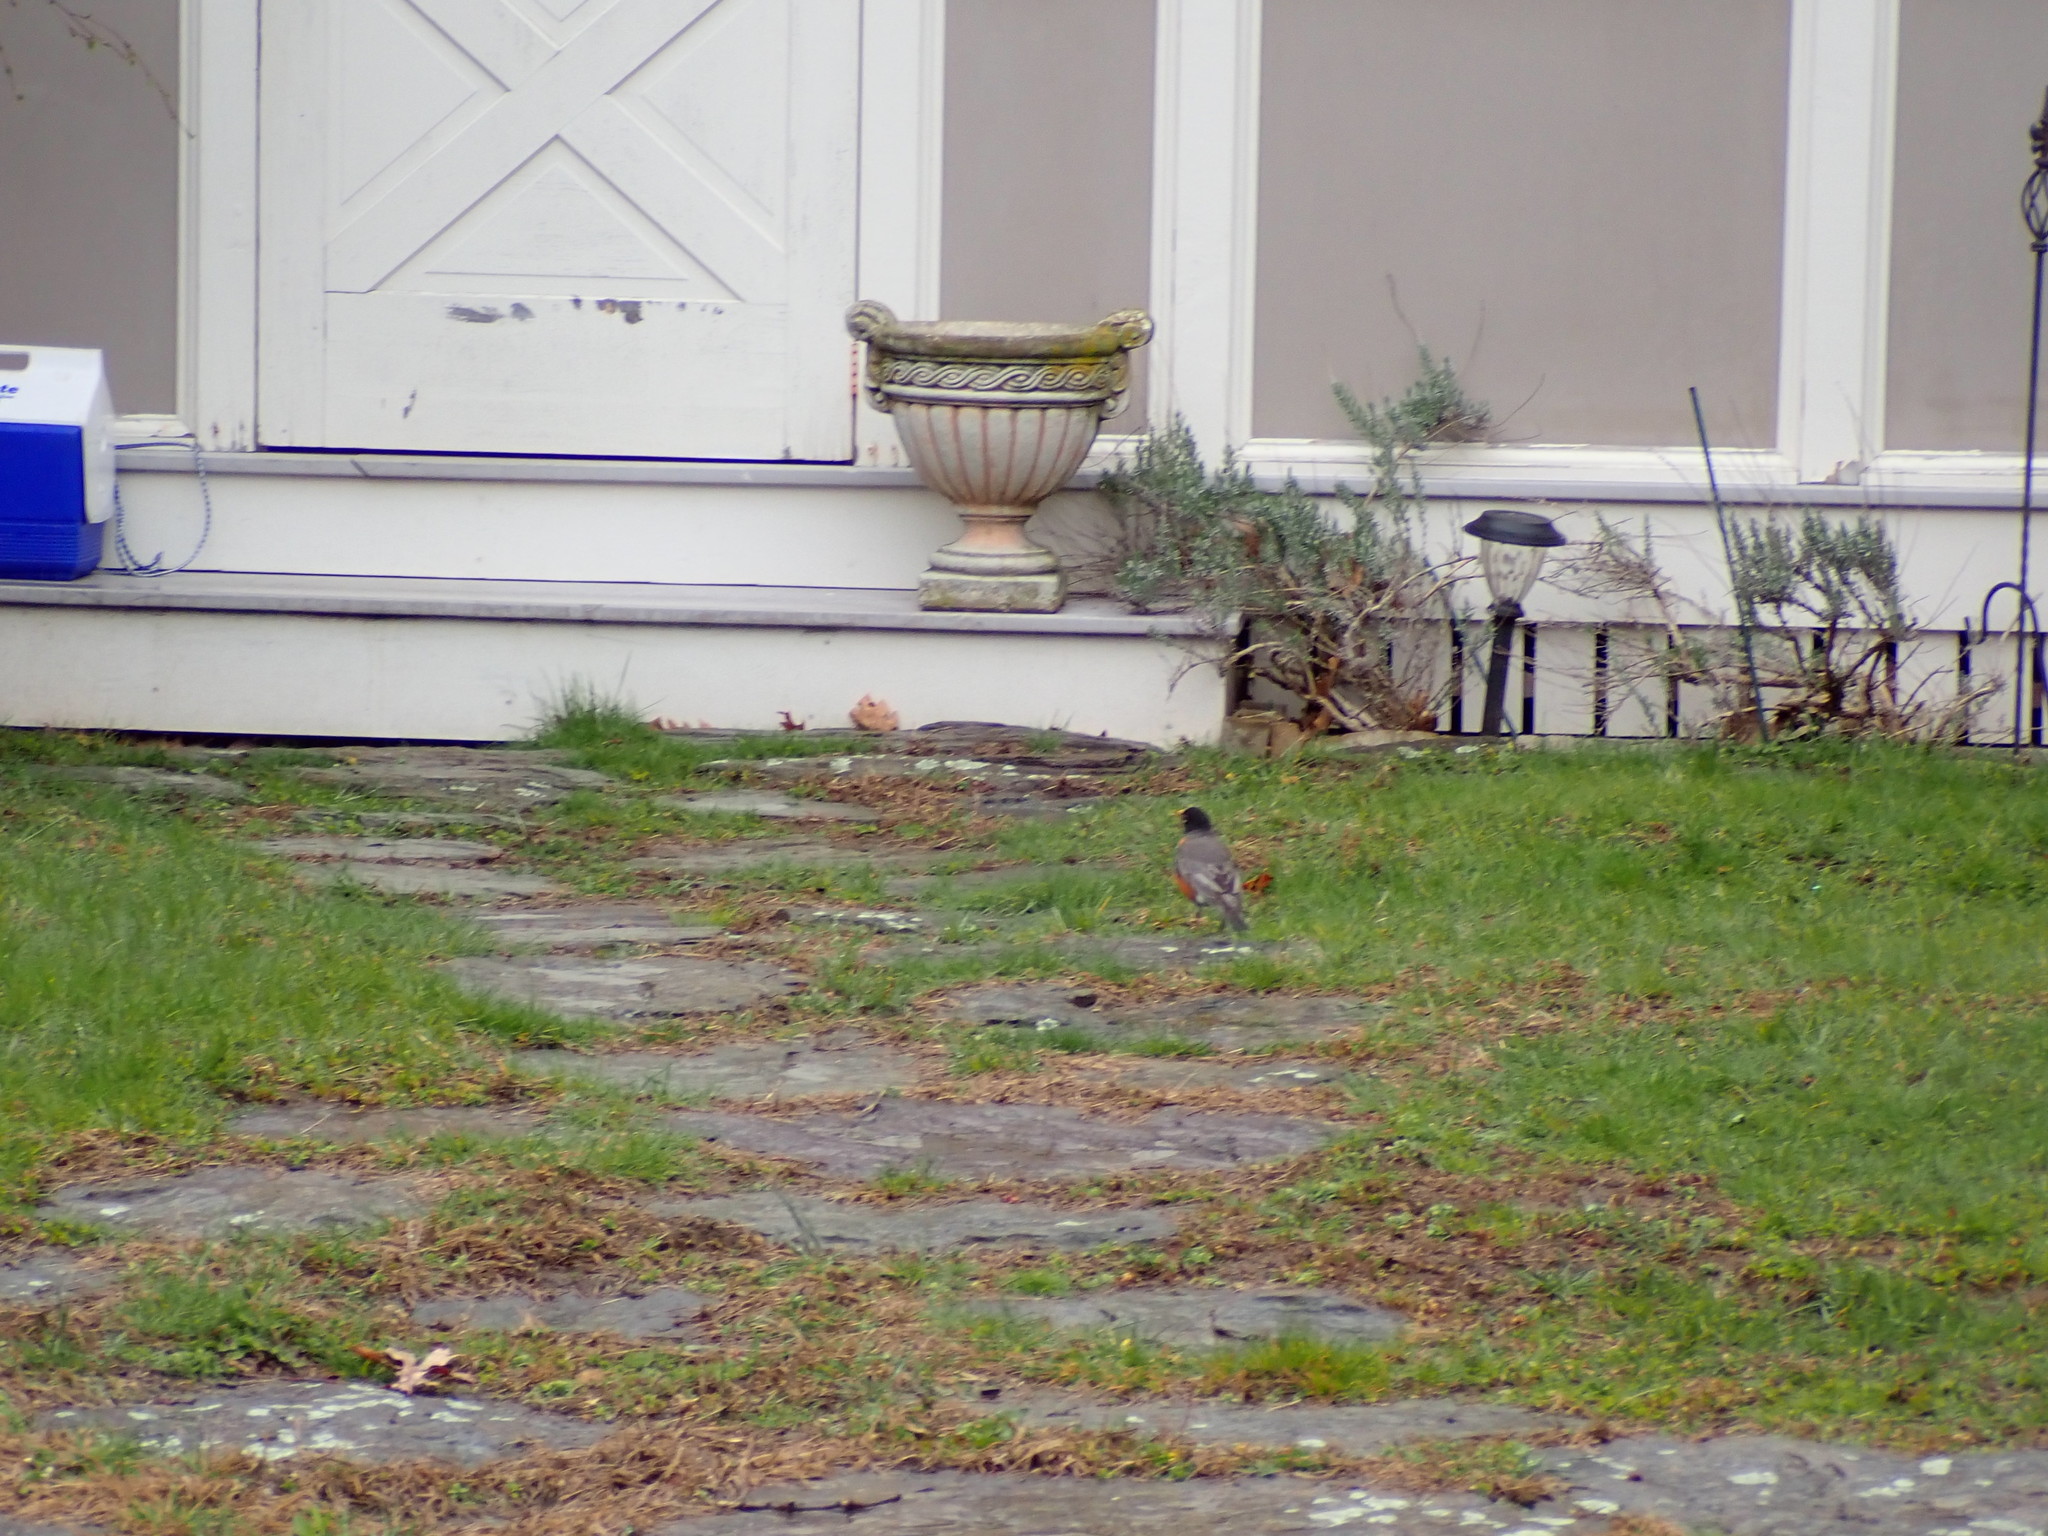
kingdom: Animalia
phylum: Chordata
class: Aves
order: Passeriformes
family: Turdidae
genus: Turdus
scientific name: Turdus migratorius
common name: American robin
